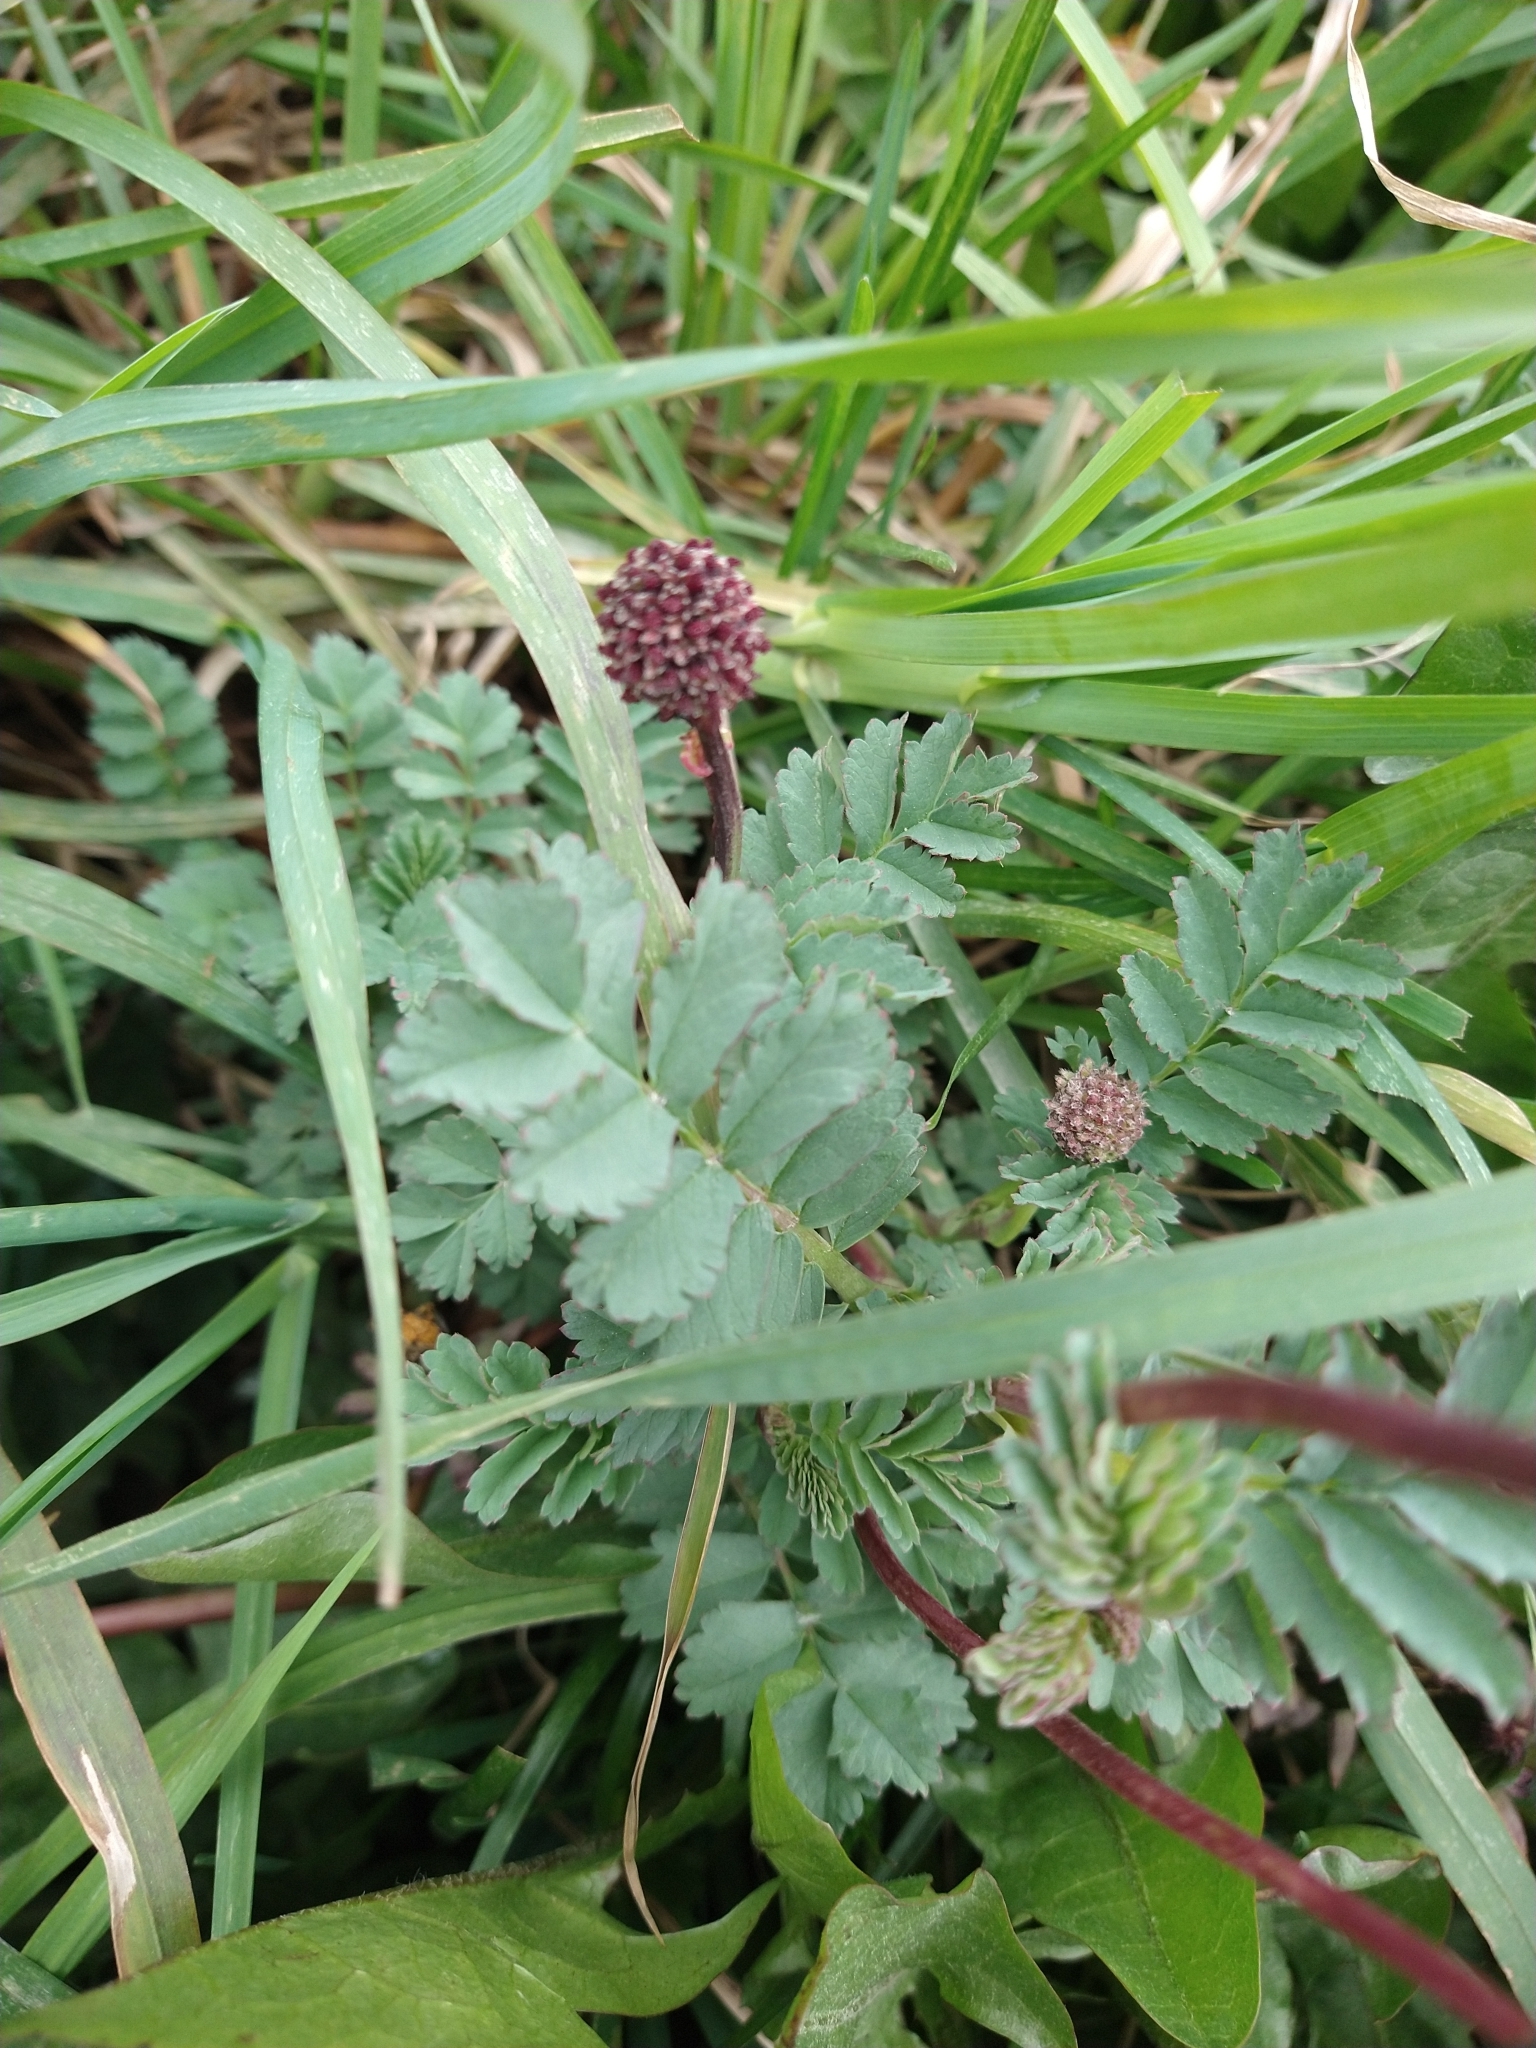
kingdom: Plantae
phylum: Tracheophyta
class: Magnoliopsida
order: Rosales
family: Rosaceae
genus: Acaena
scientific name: Acaena magellanica
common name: New zealand burr
